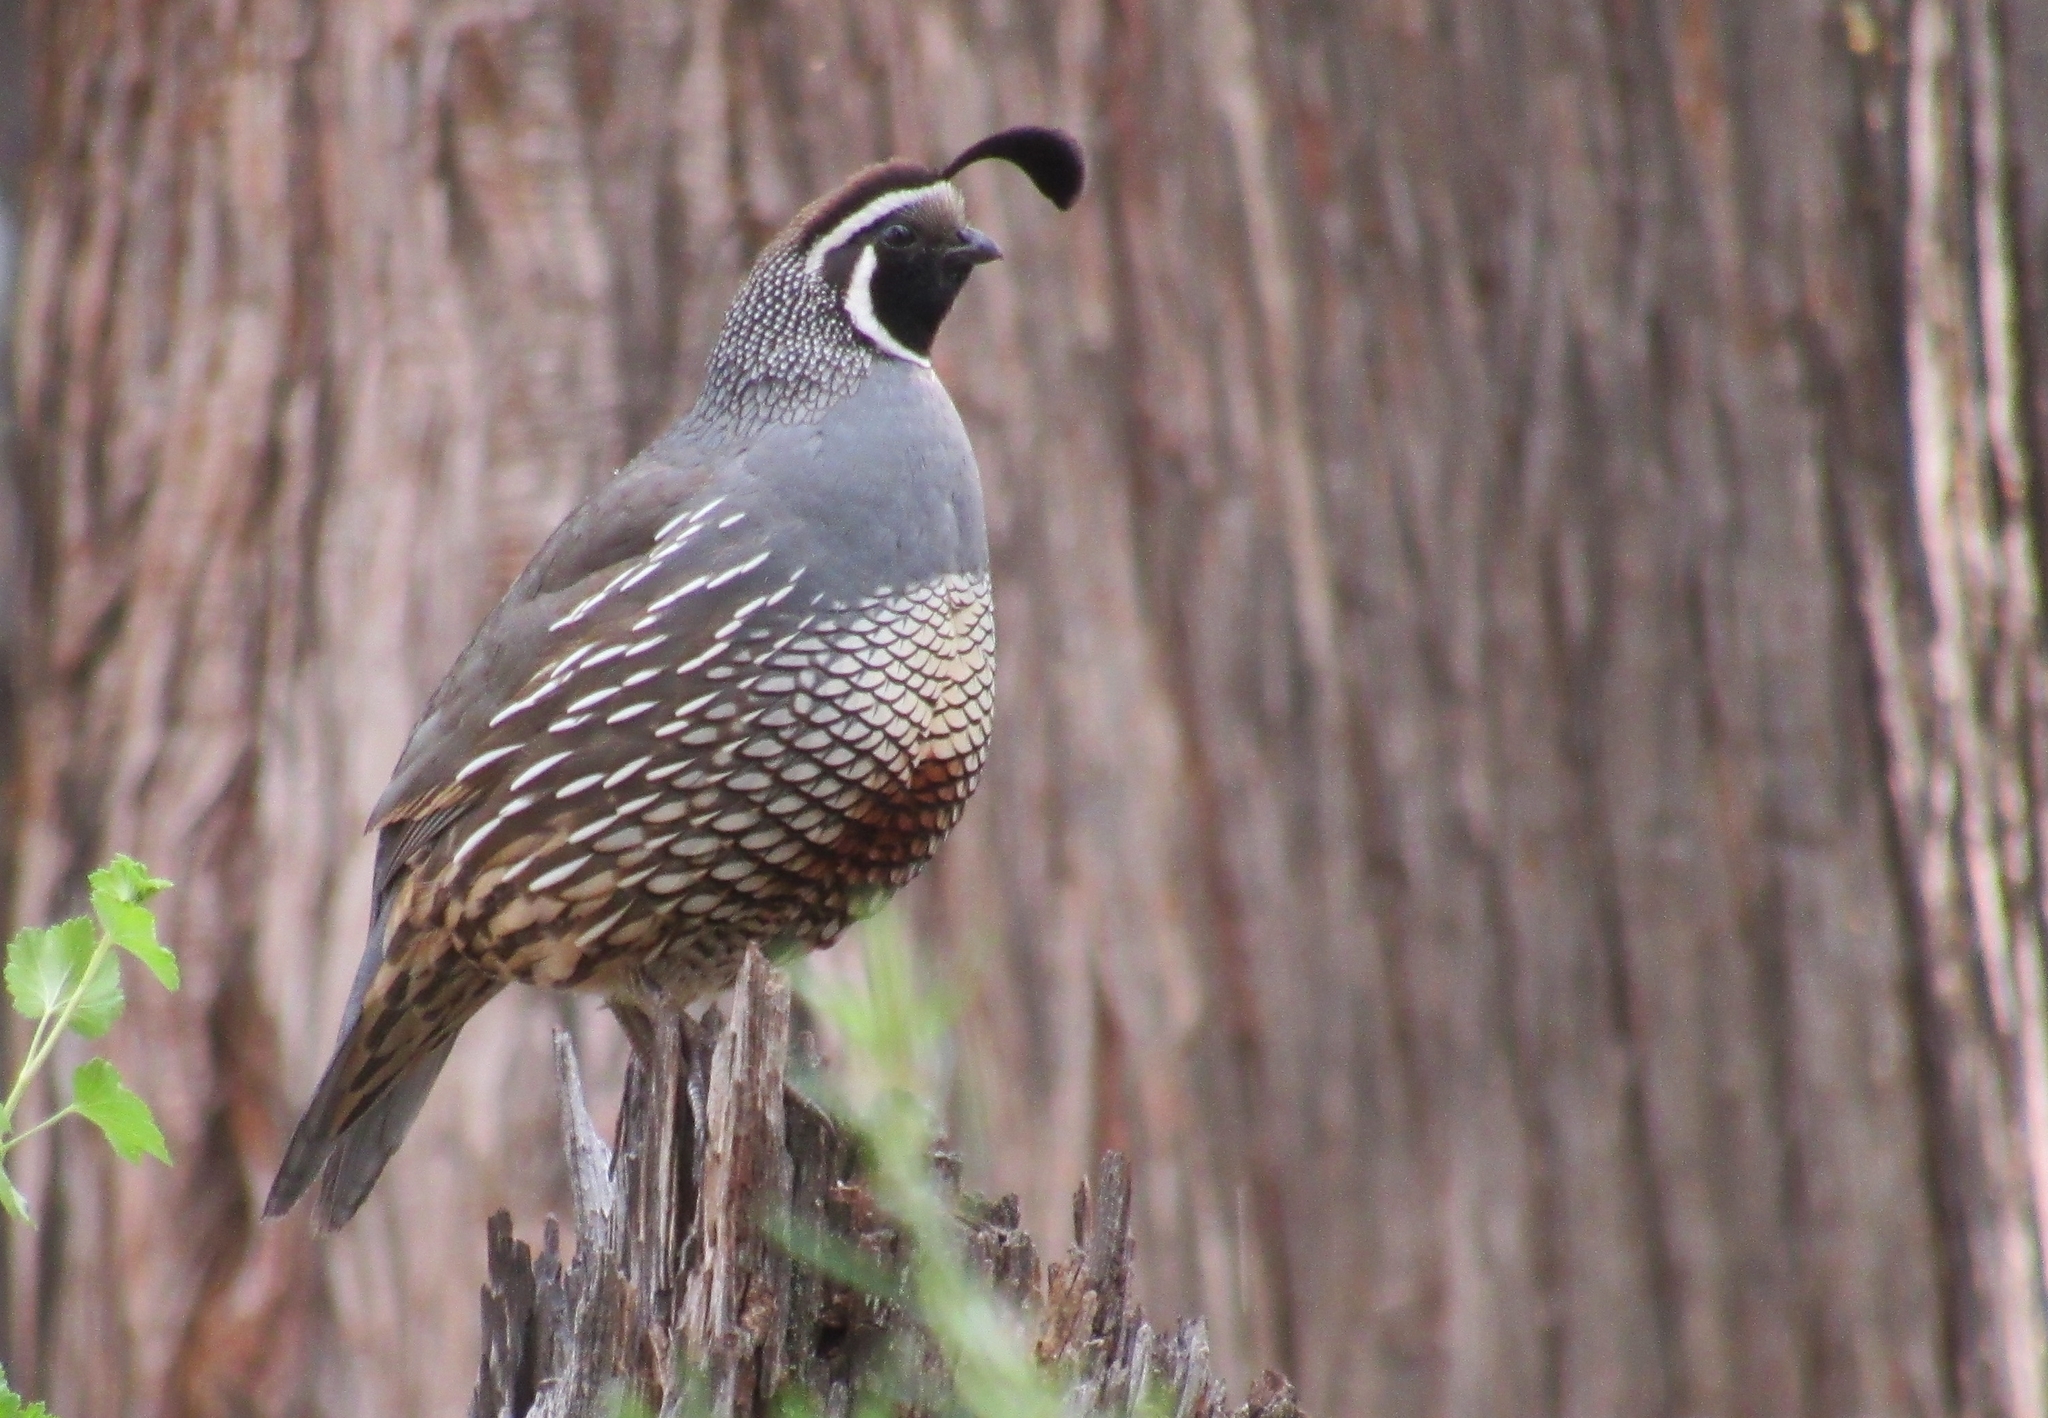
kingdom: Animalia
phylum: Chordata
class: Aves
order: Galliformes
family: Odontophoridae
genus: Callipepla
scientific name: Callipepla californica
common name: California quail
